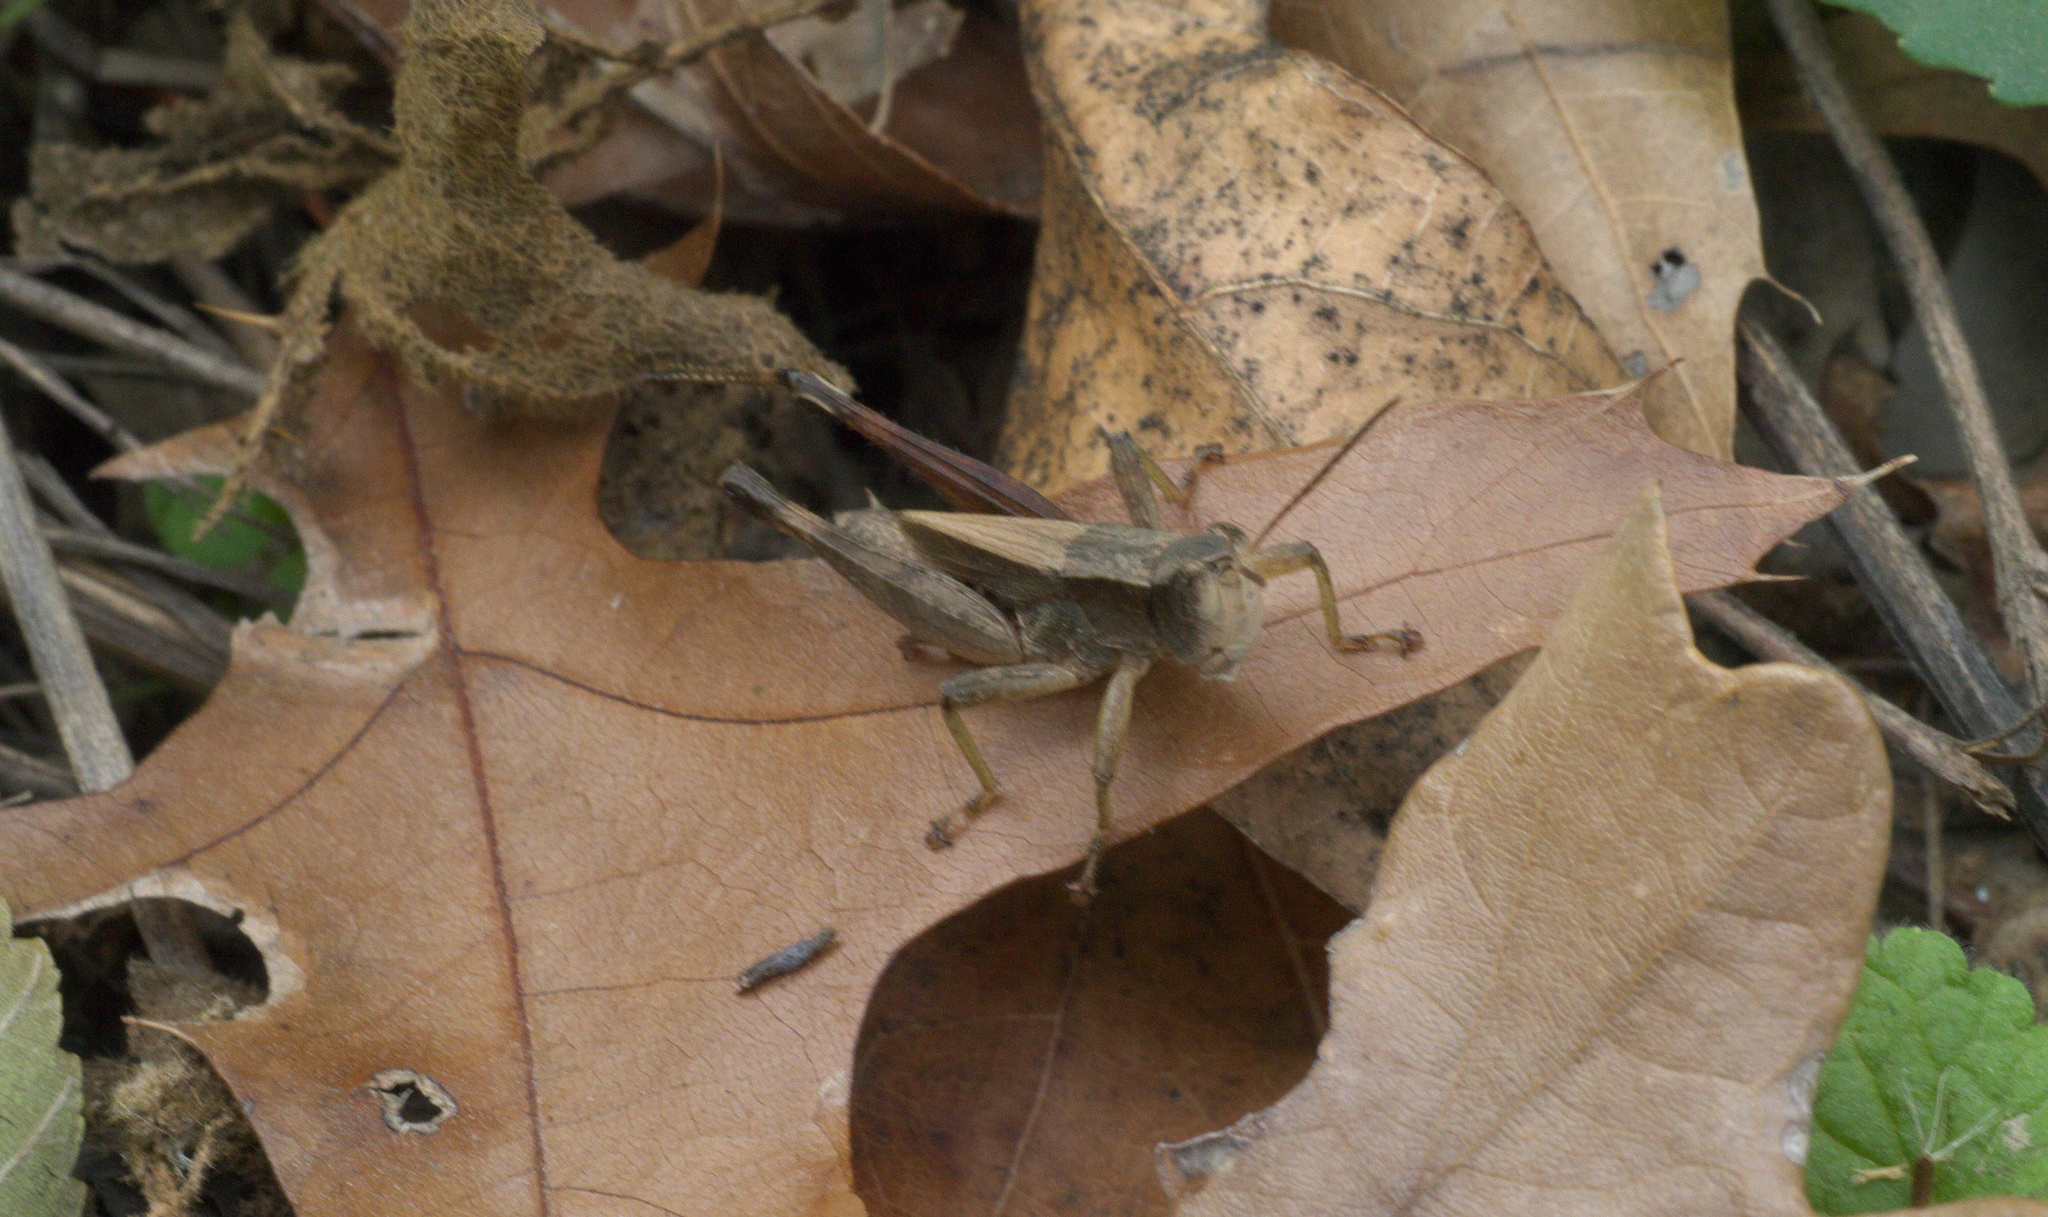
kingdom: Animalia
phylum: Arthropoda
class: Insecta
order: Orthoptera
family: Acrididae
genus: Dichromorpha
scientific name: Dichromorpha viridis
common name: Short-winged green grasshopper
